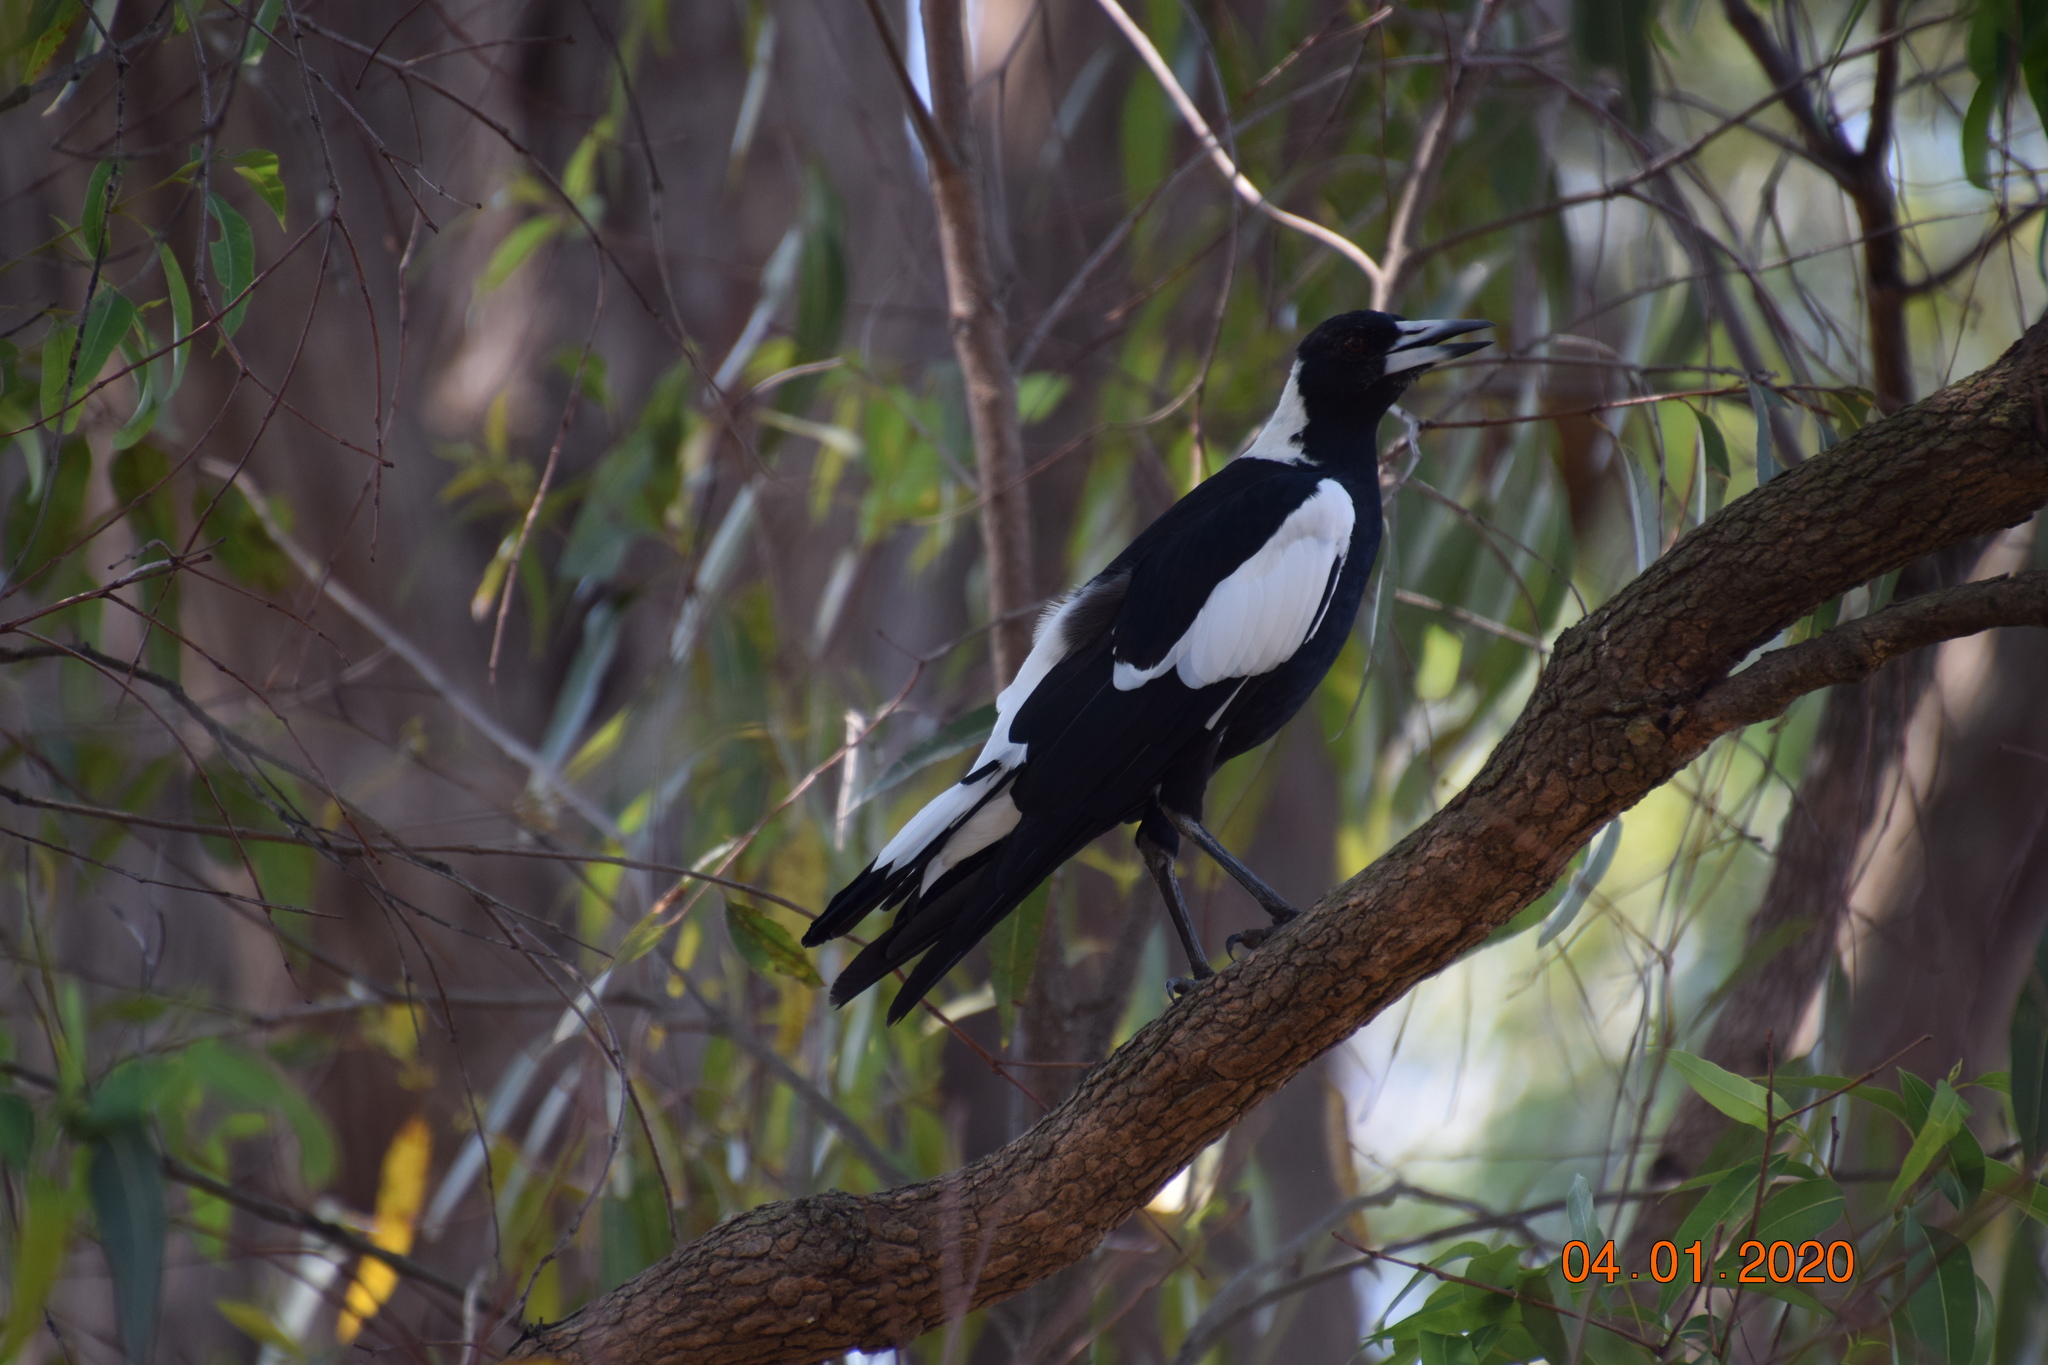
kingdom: Animalia
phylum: Chordata
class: Aves
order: Passeriformes
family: Cracticidae
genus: Gymnorhina
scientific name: Gymnorhina tibicen
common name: Australian magpie
